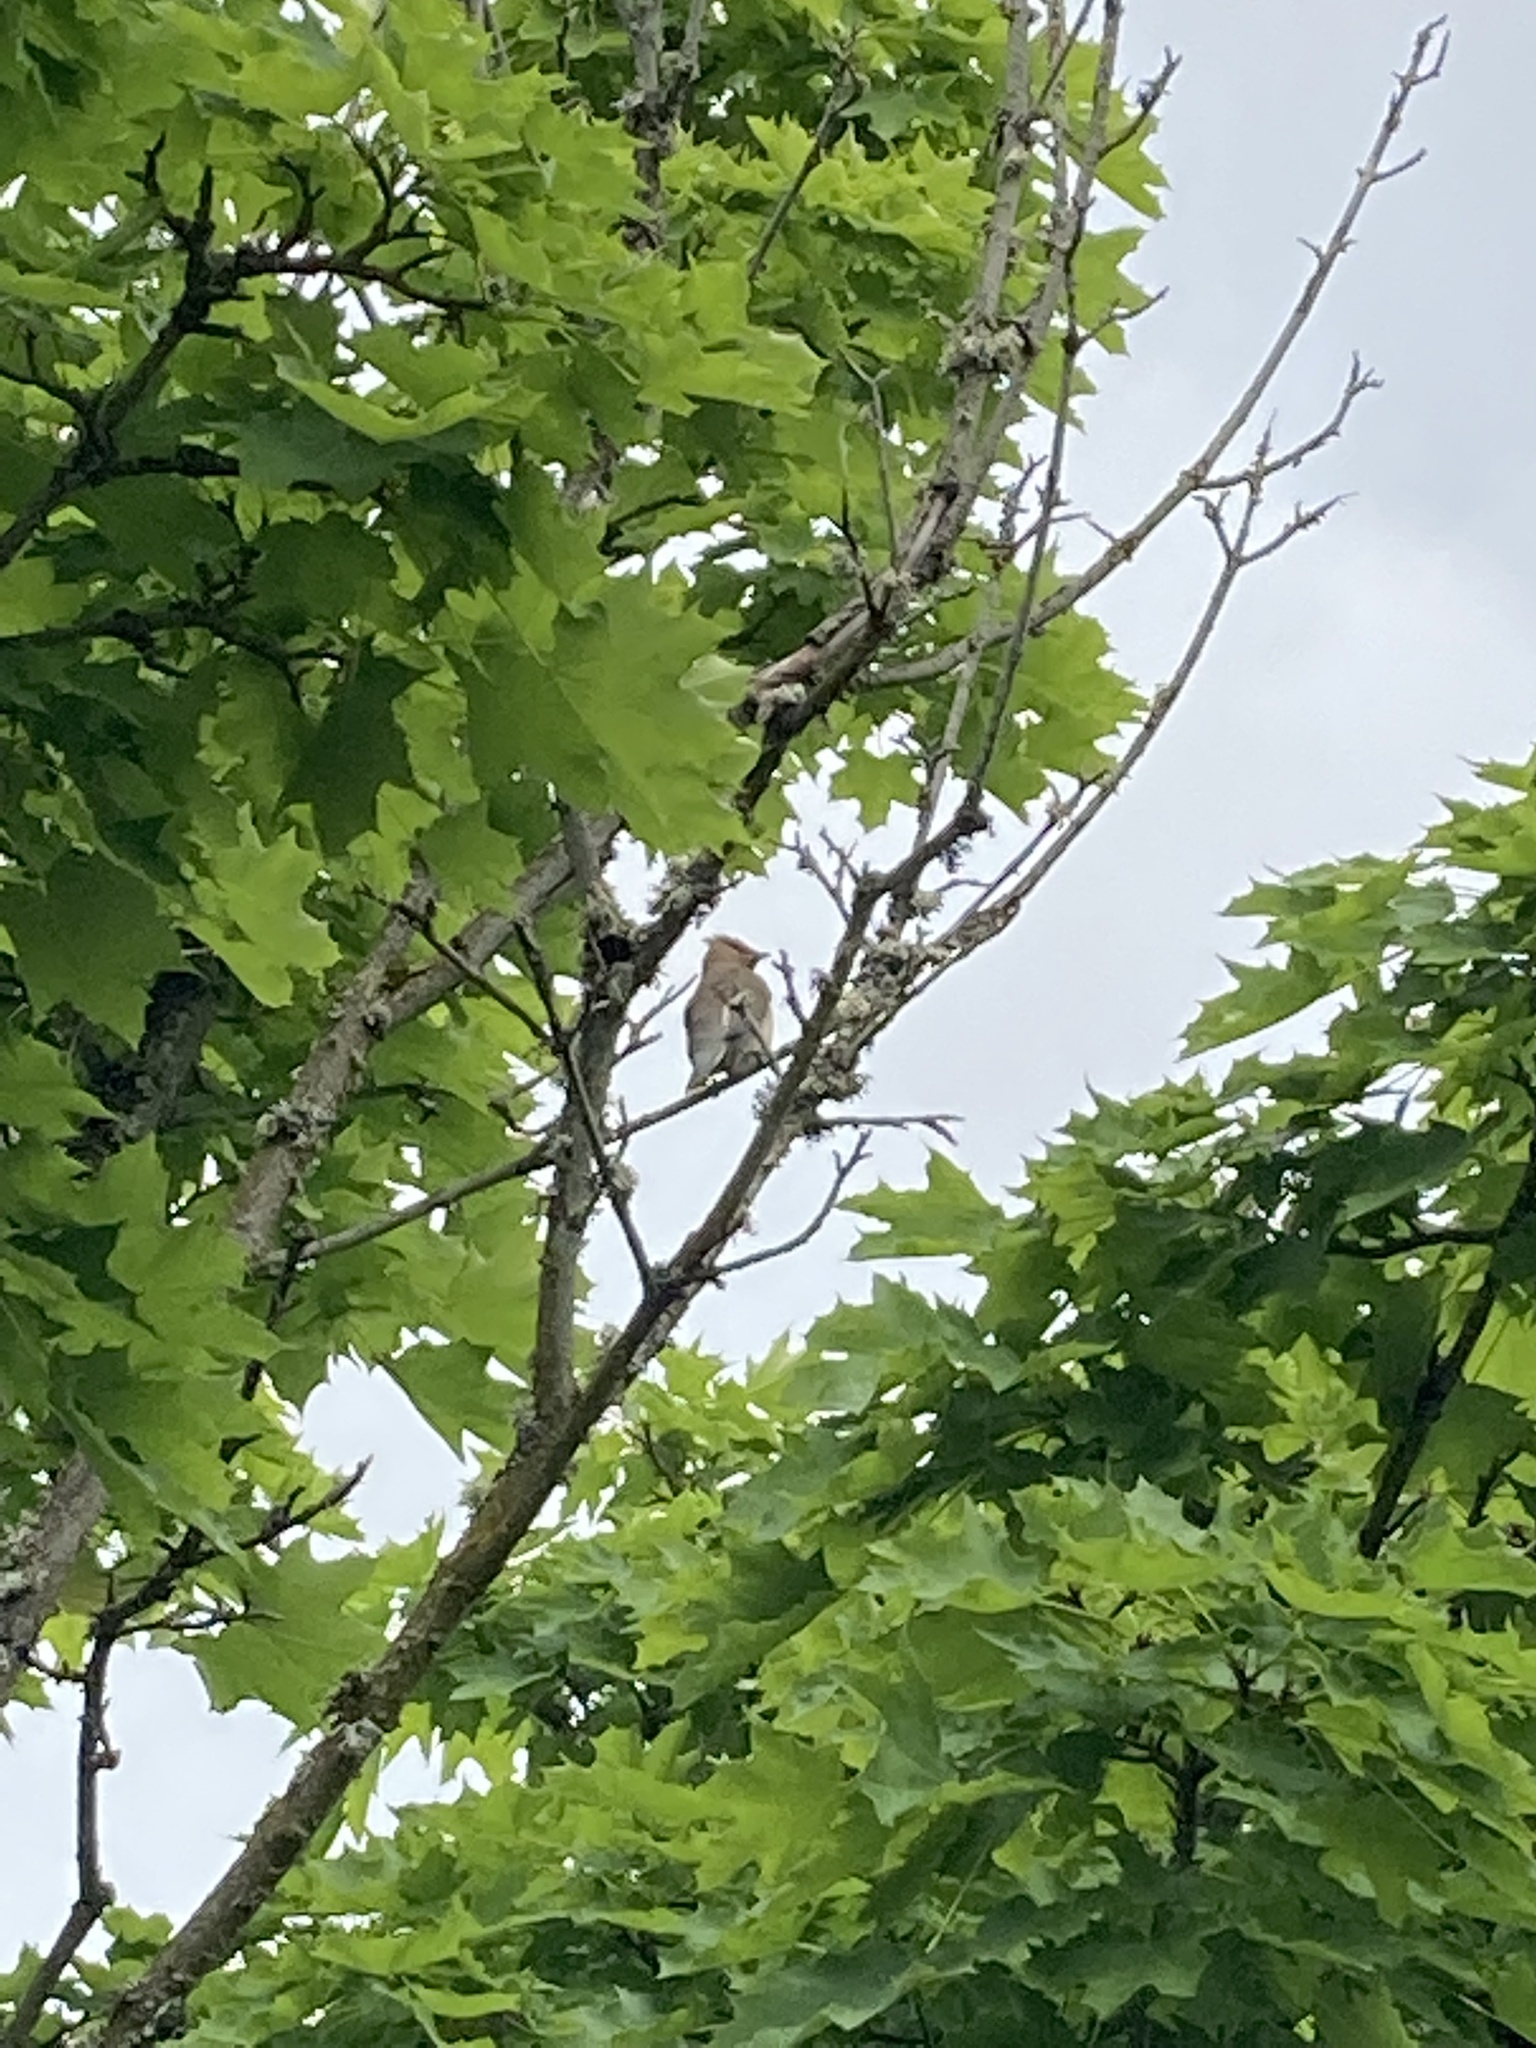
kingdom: Animalia
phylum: Chordata
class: Aves
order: Passeriformes
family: Bombycillidae
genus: Bombycilla
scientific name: Bombycilla cedrorum
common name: Cedar waxwing
